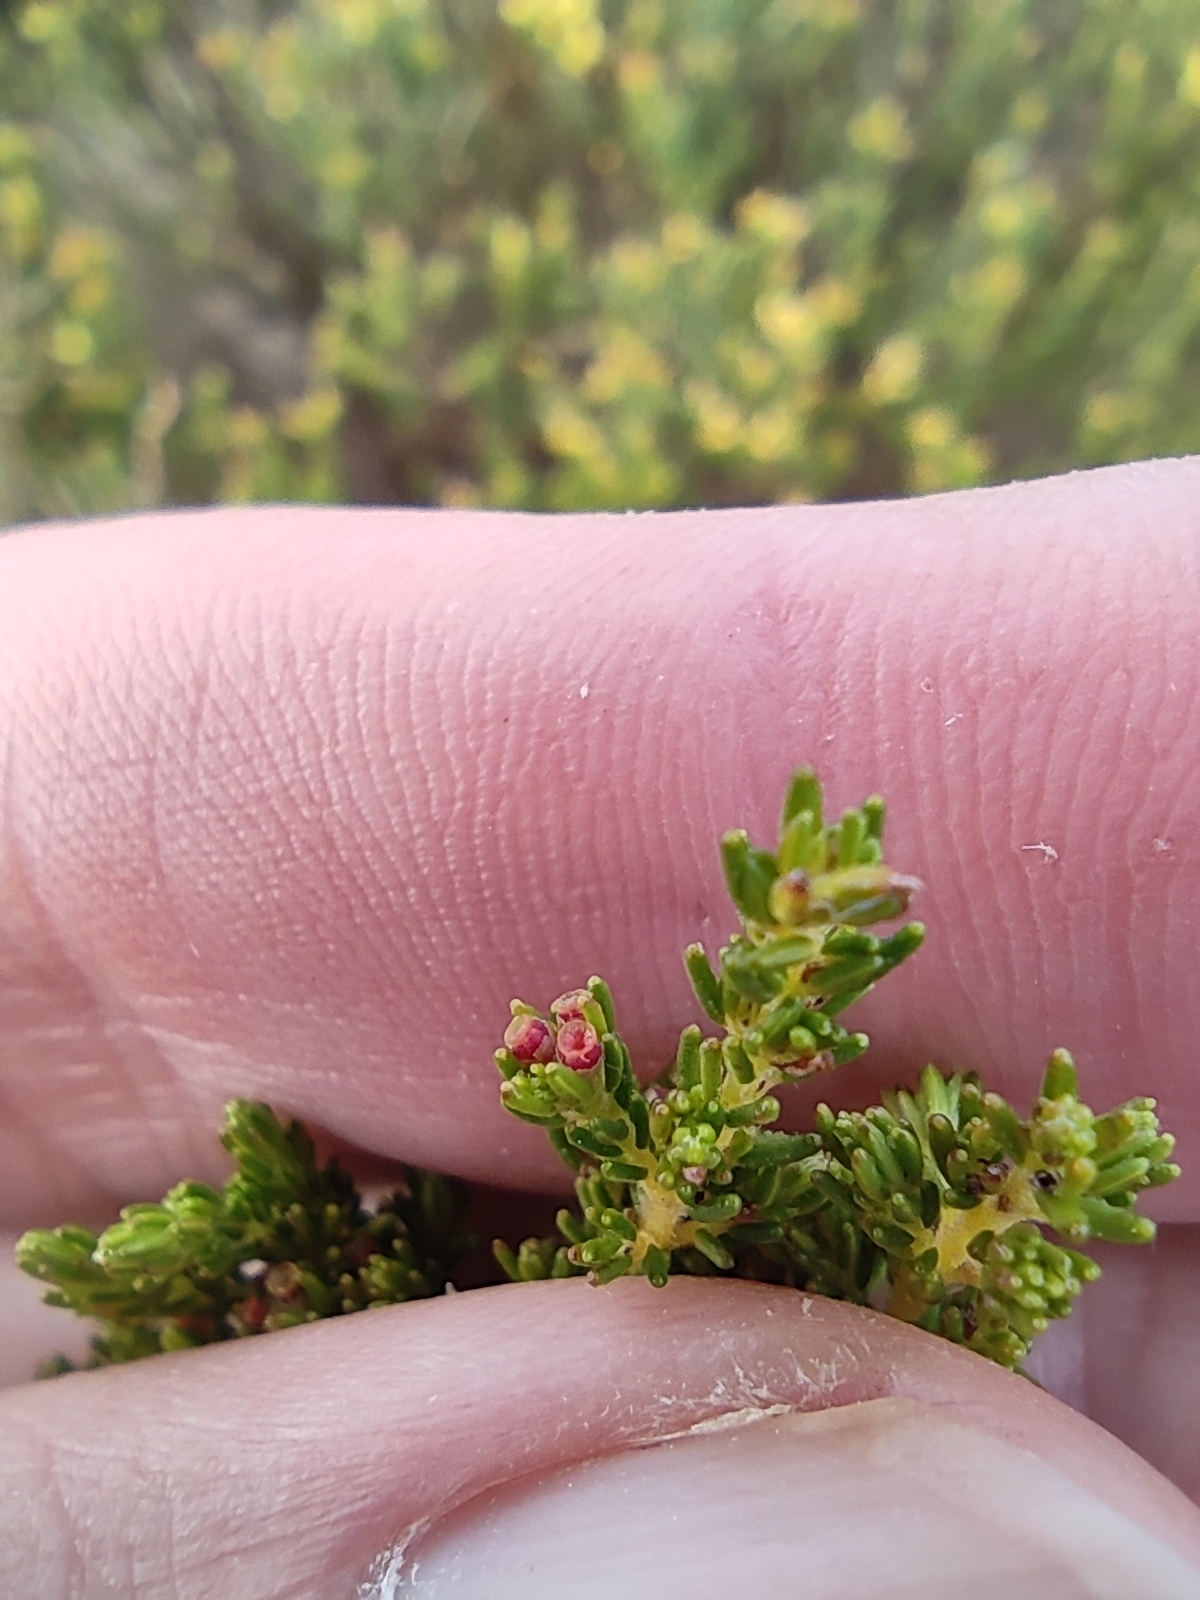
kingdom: Plantae
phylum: Tracheophyta
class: Magnoliopsida
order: Ericales
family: Ericaceae
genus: Erica
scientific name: Erica muscosa
